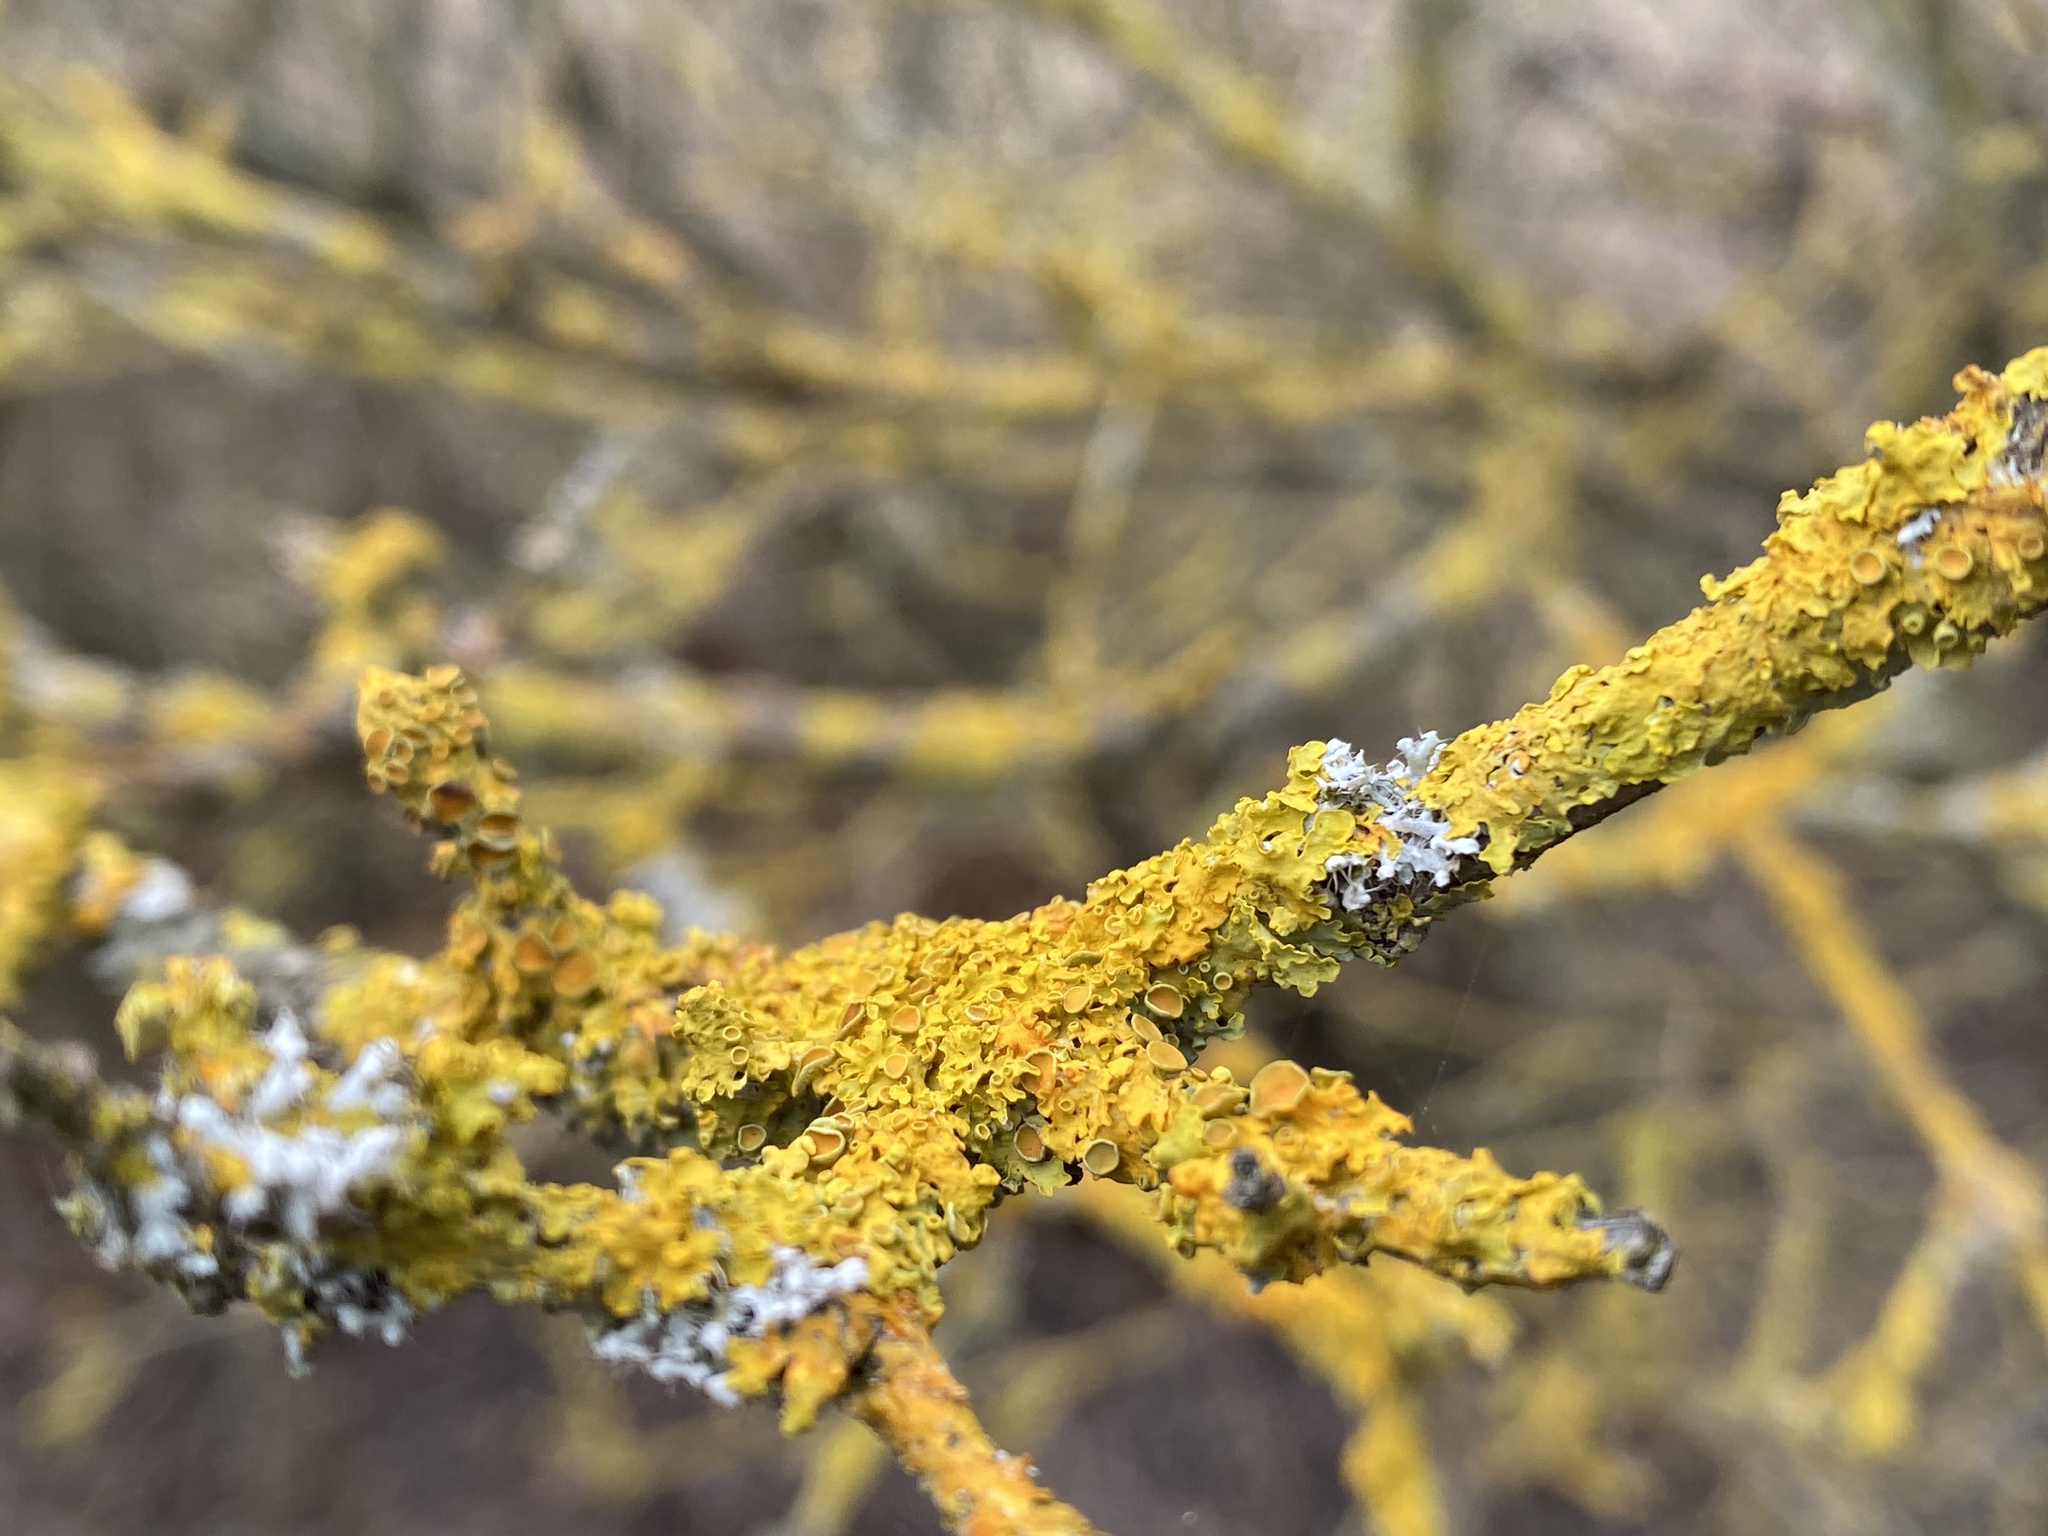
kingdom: Fungi
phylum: Ascomycota
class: Lecanoromycetes
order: Teloschistales
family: Teloschistaceae
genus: Xanthoria
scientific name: Xanthoria parietina
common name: Common orange lichen
